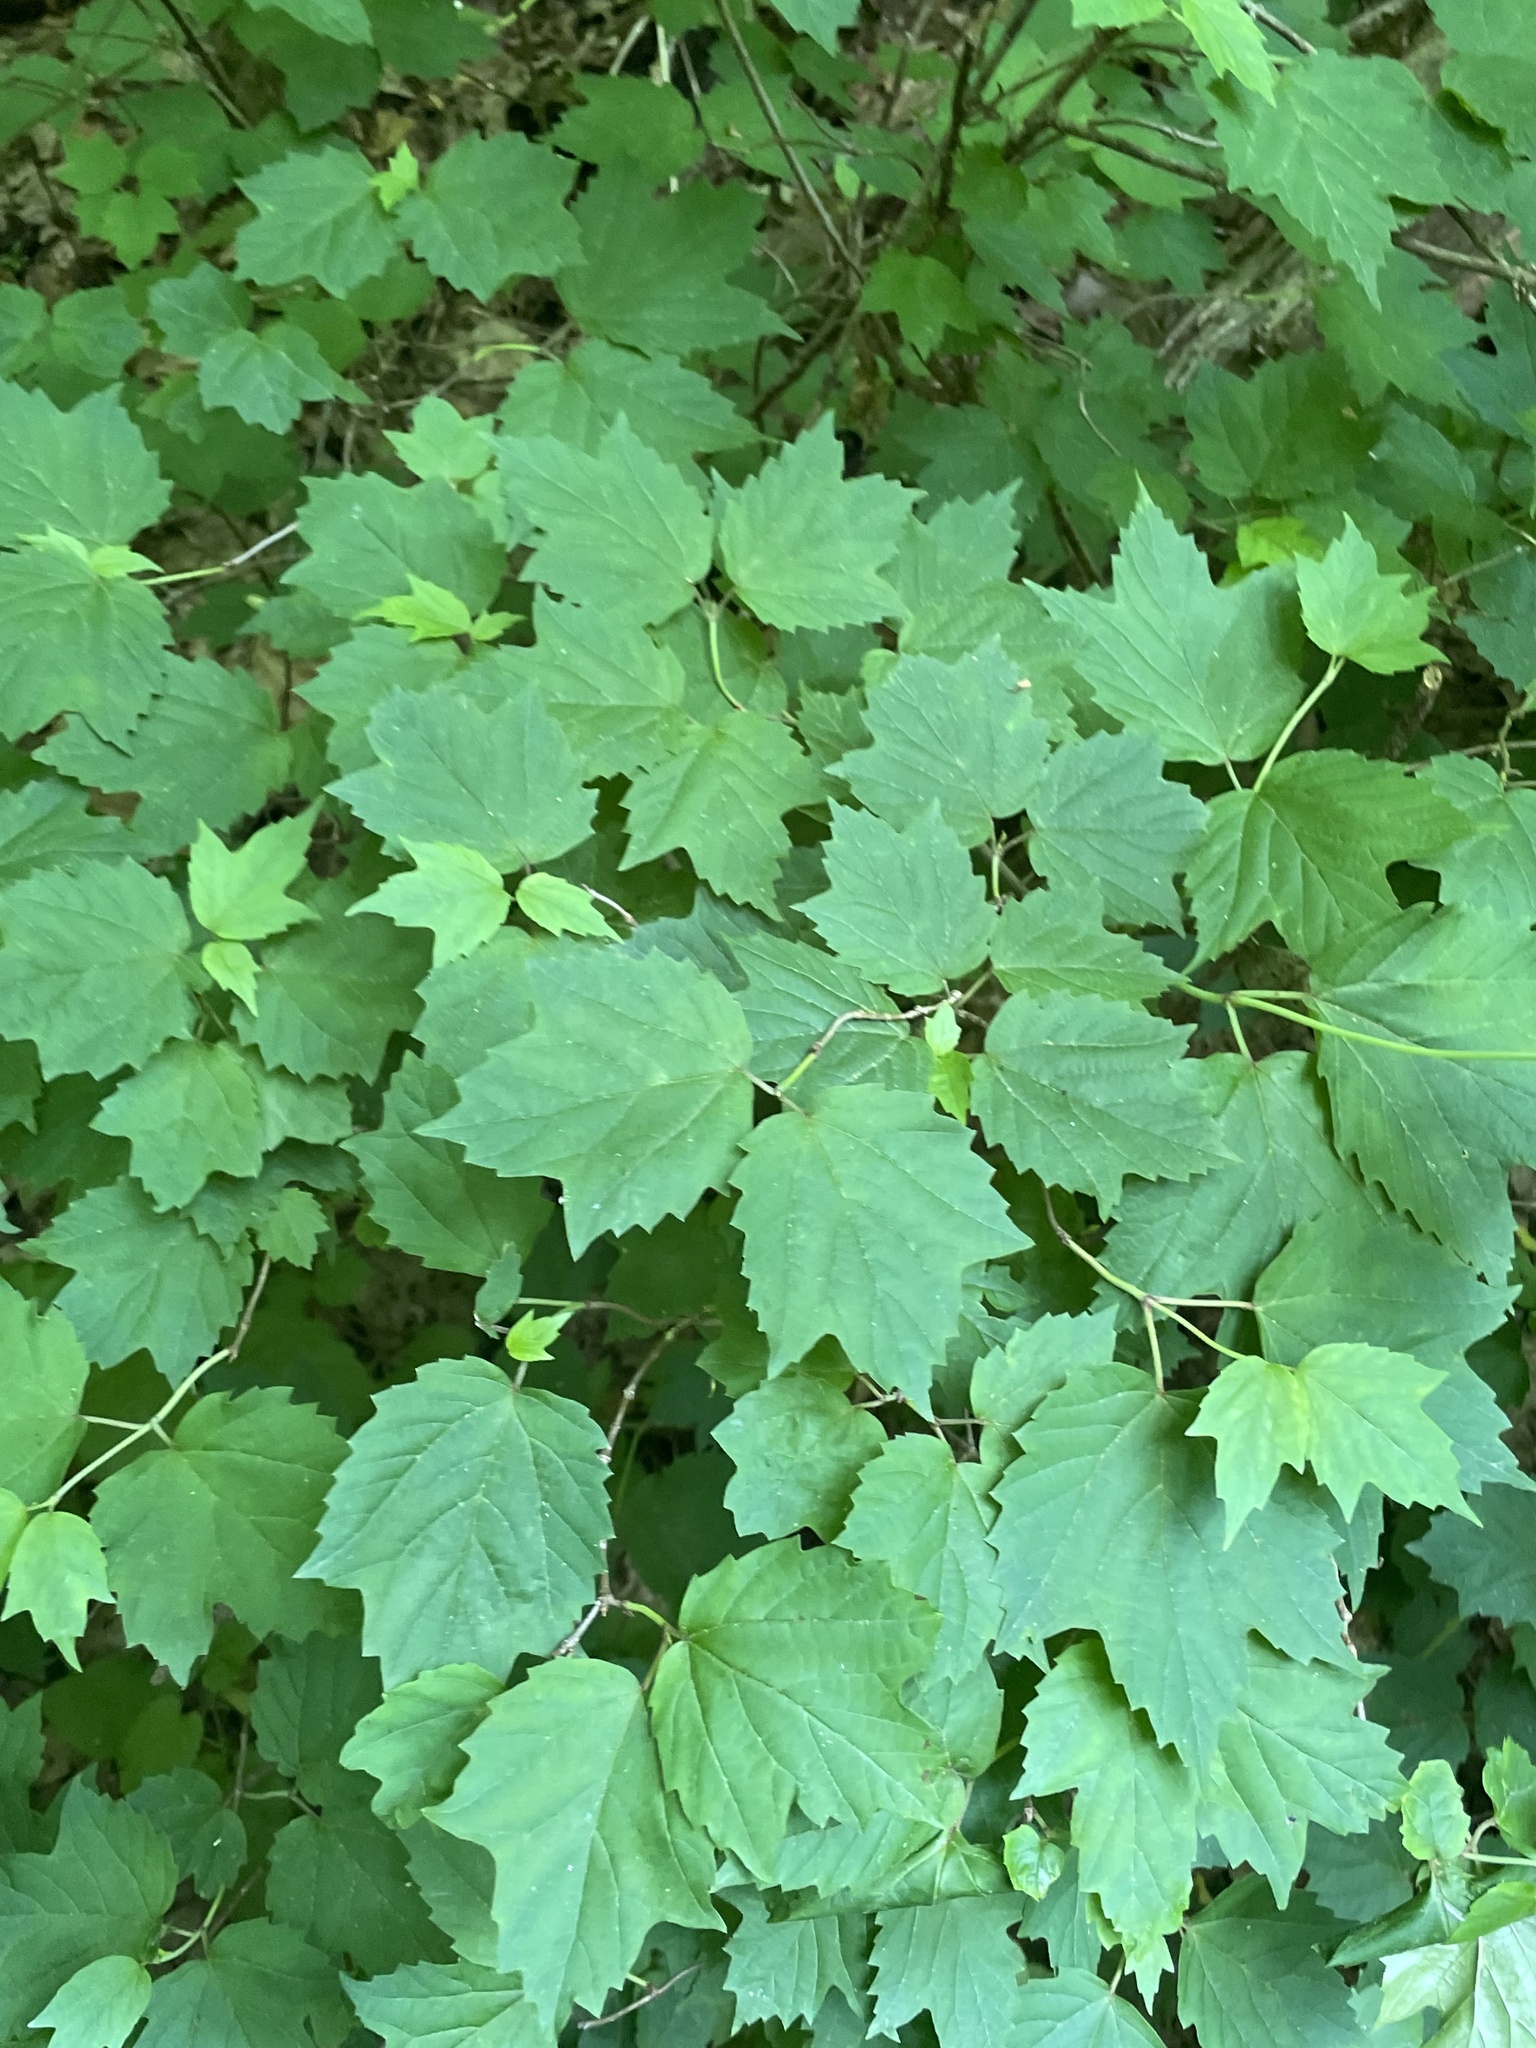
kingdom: Plantae
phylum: Tracheophyta
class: Magnoliopsida
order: Dipsacales
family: Viburnaceae
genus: Viburnum
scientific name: Viburnum acerifolium
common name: Dockmackie
